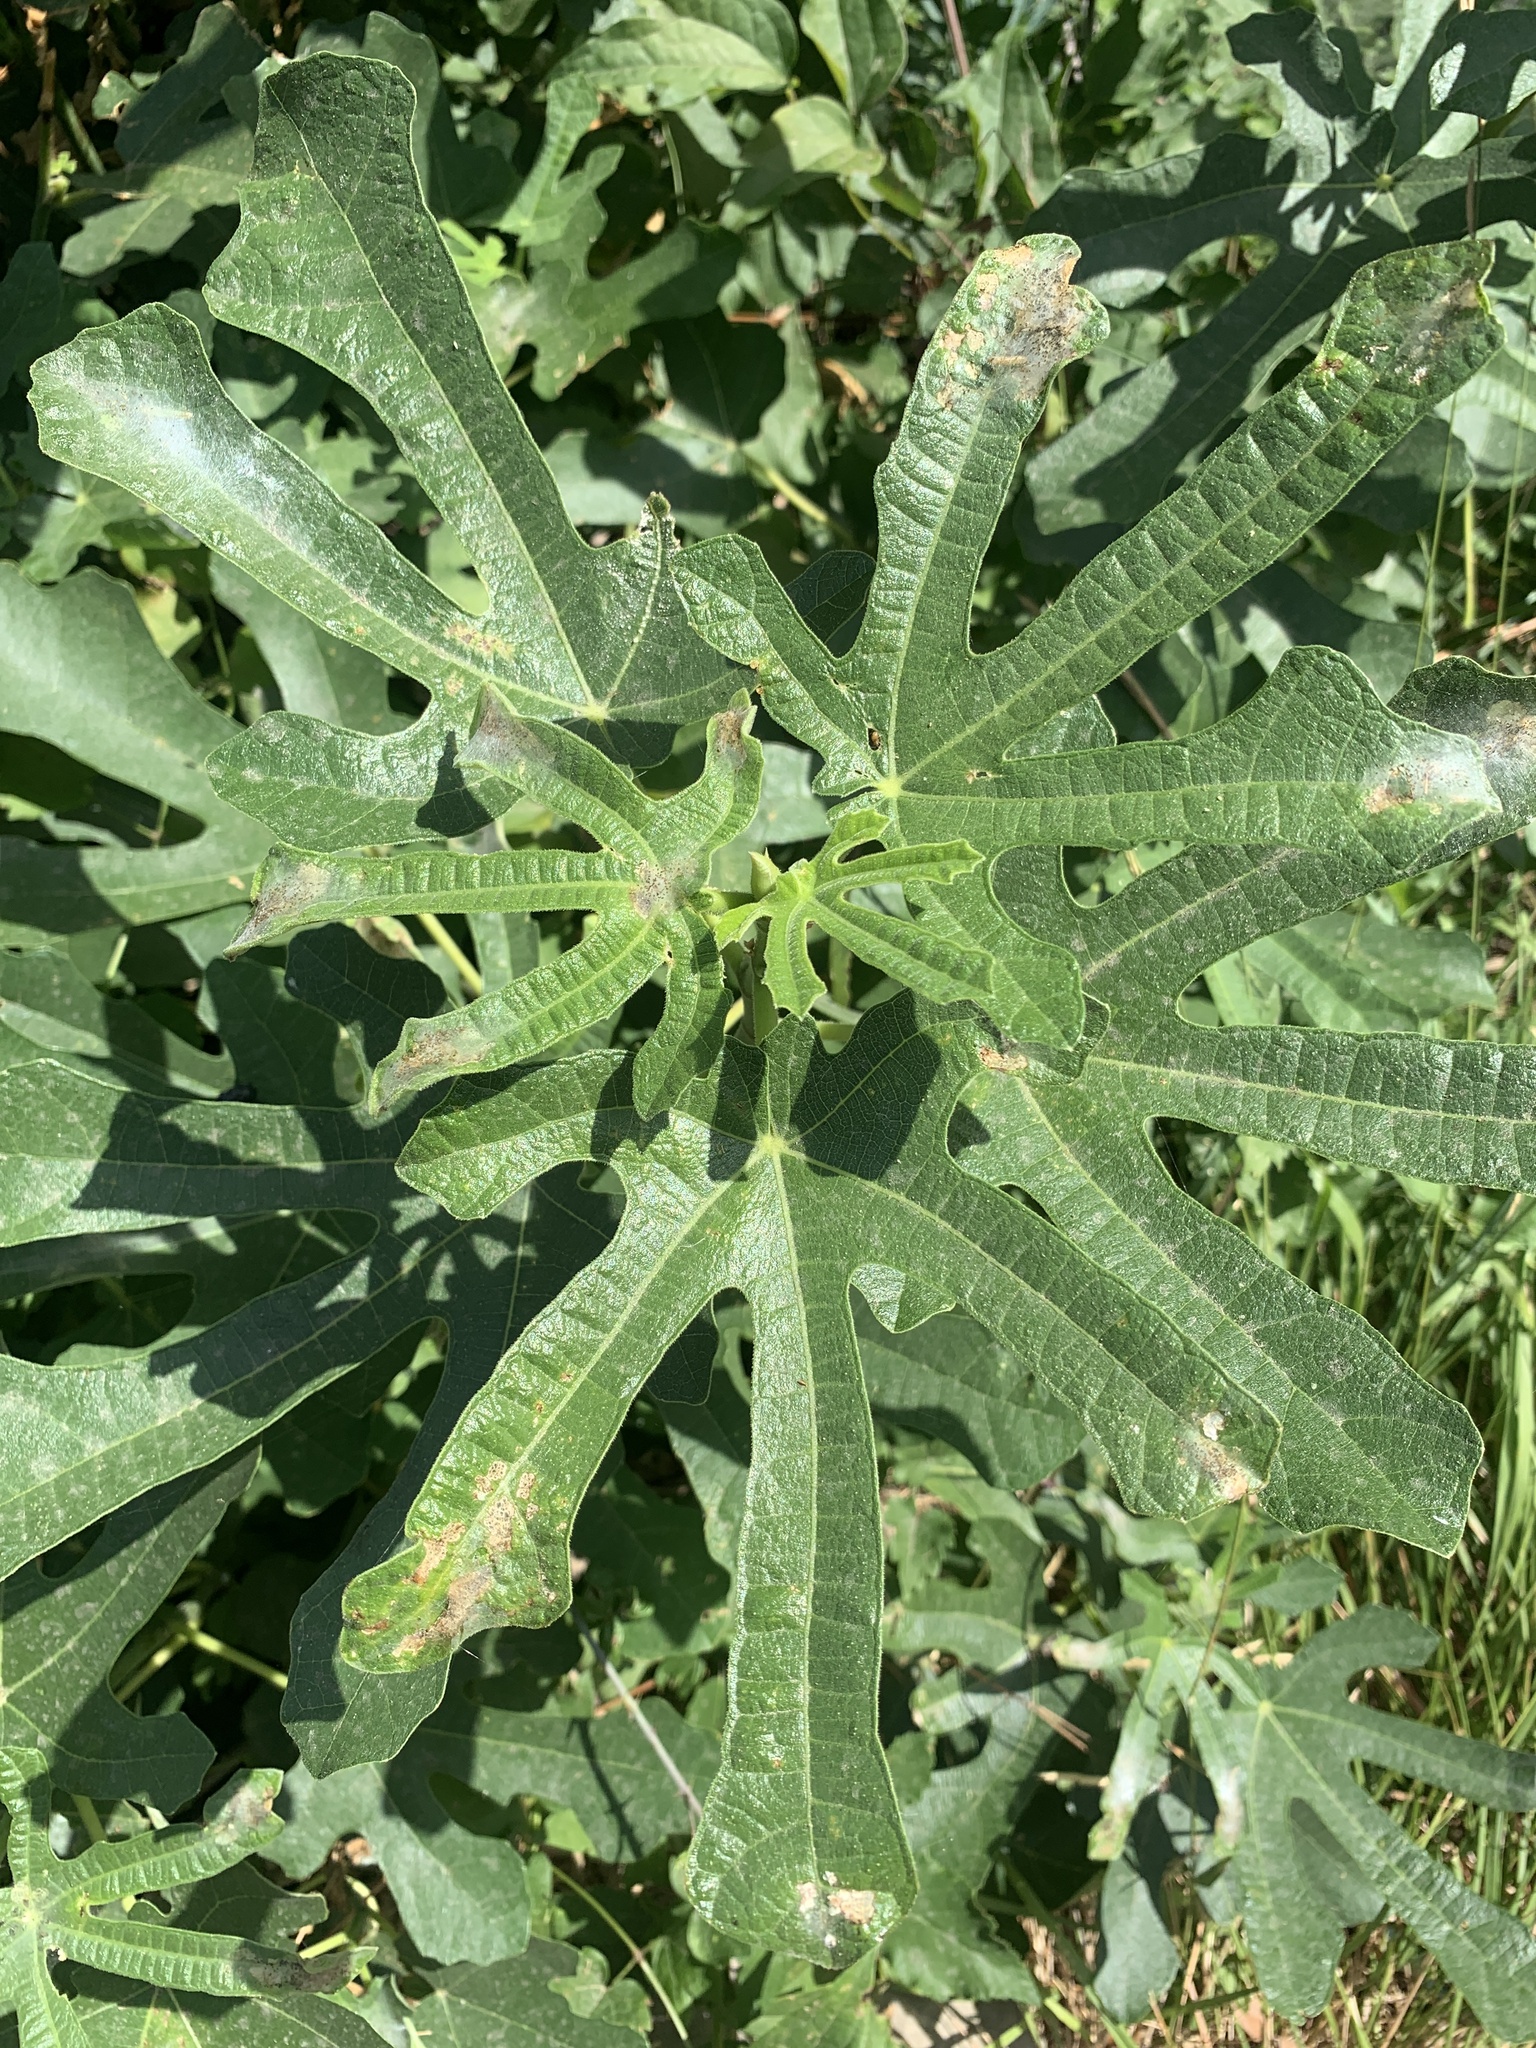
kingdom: Plantae
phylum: Tracheophyta
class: Magnoliopsida
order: Rosales
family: Moraceae
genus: Ficus
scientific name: Ficus carica
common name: Fig
